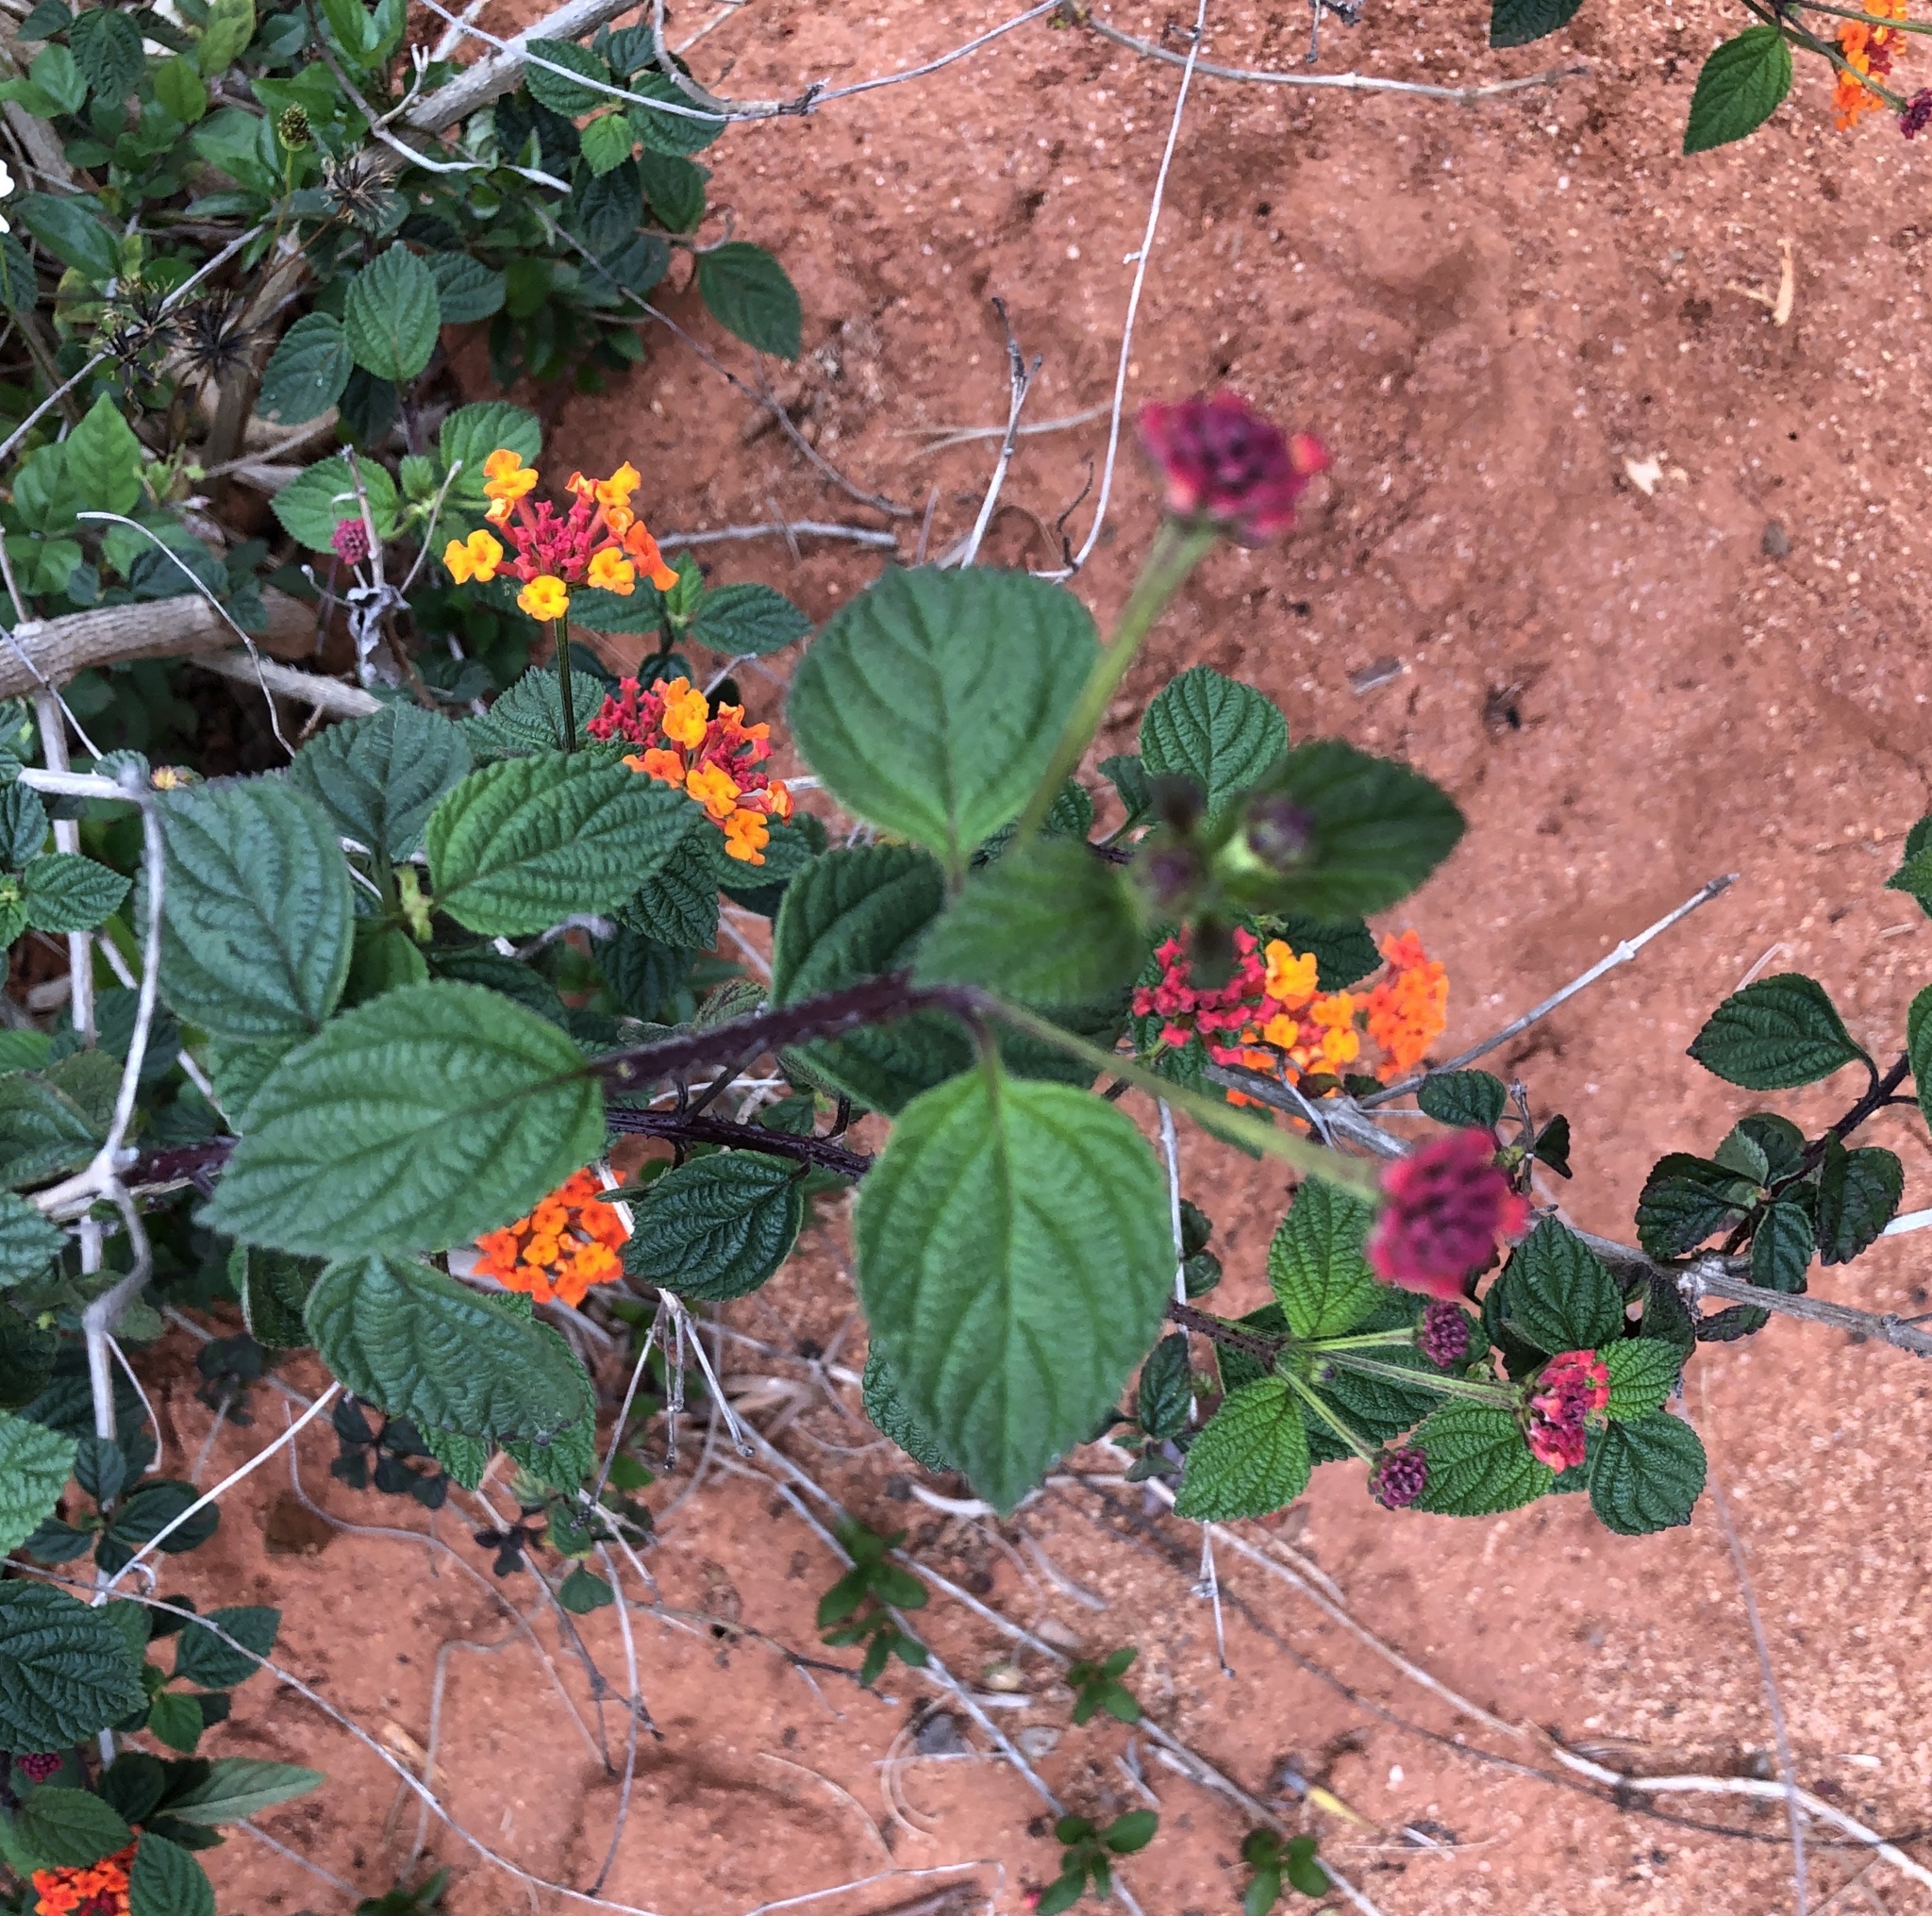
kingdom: Plantae
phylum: Tracheophyta
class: Magnoliopsida
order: Lamiales
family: Verbenaceae
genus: Lantana
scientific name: Lantana camara
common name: Lantana
